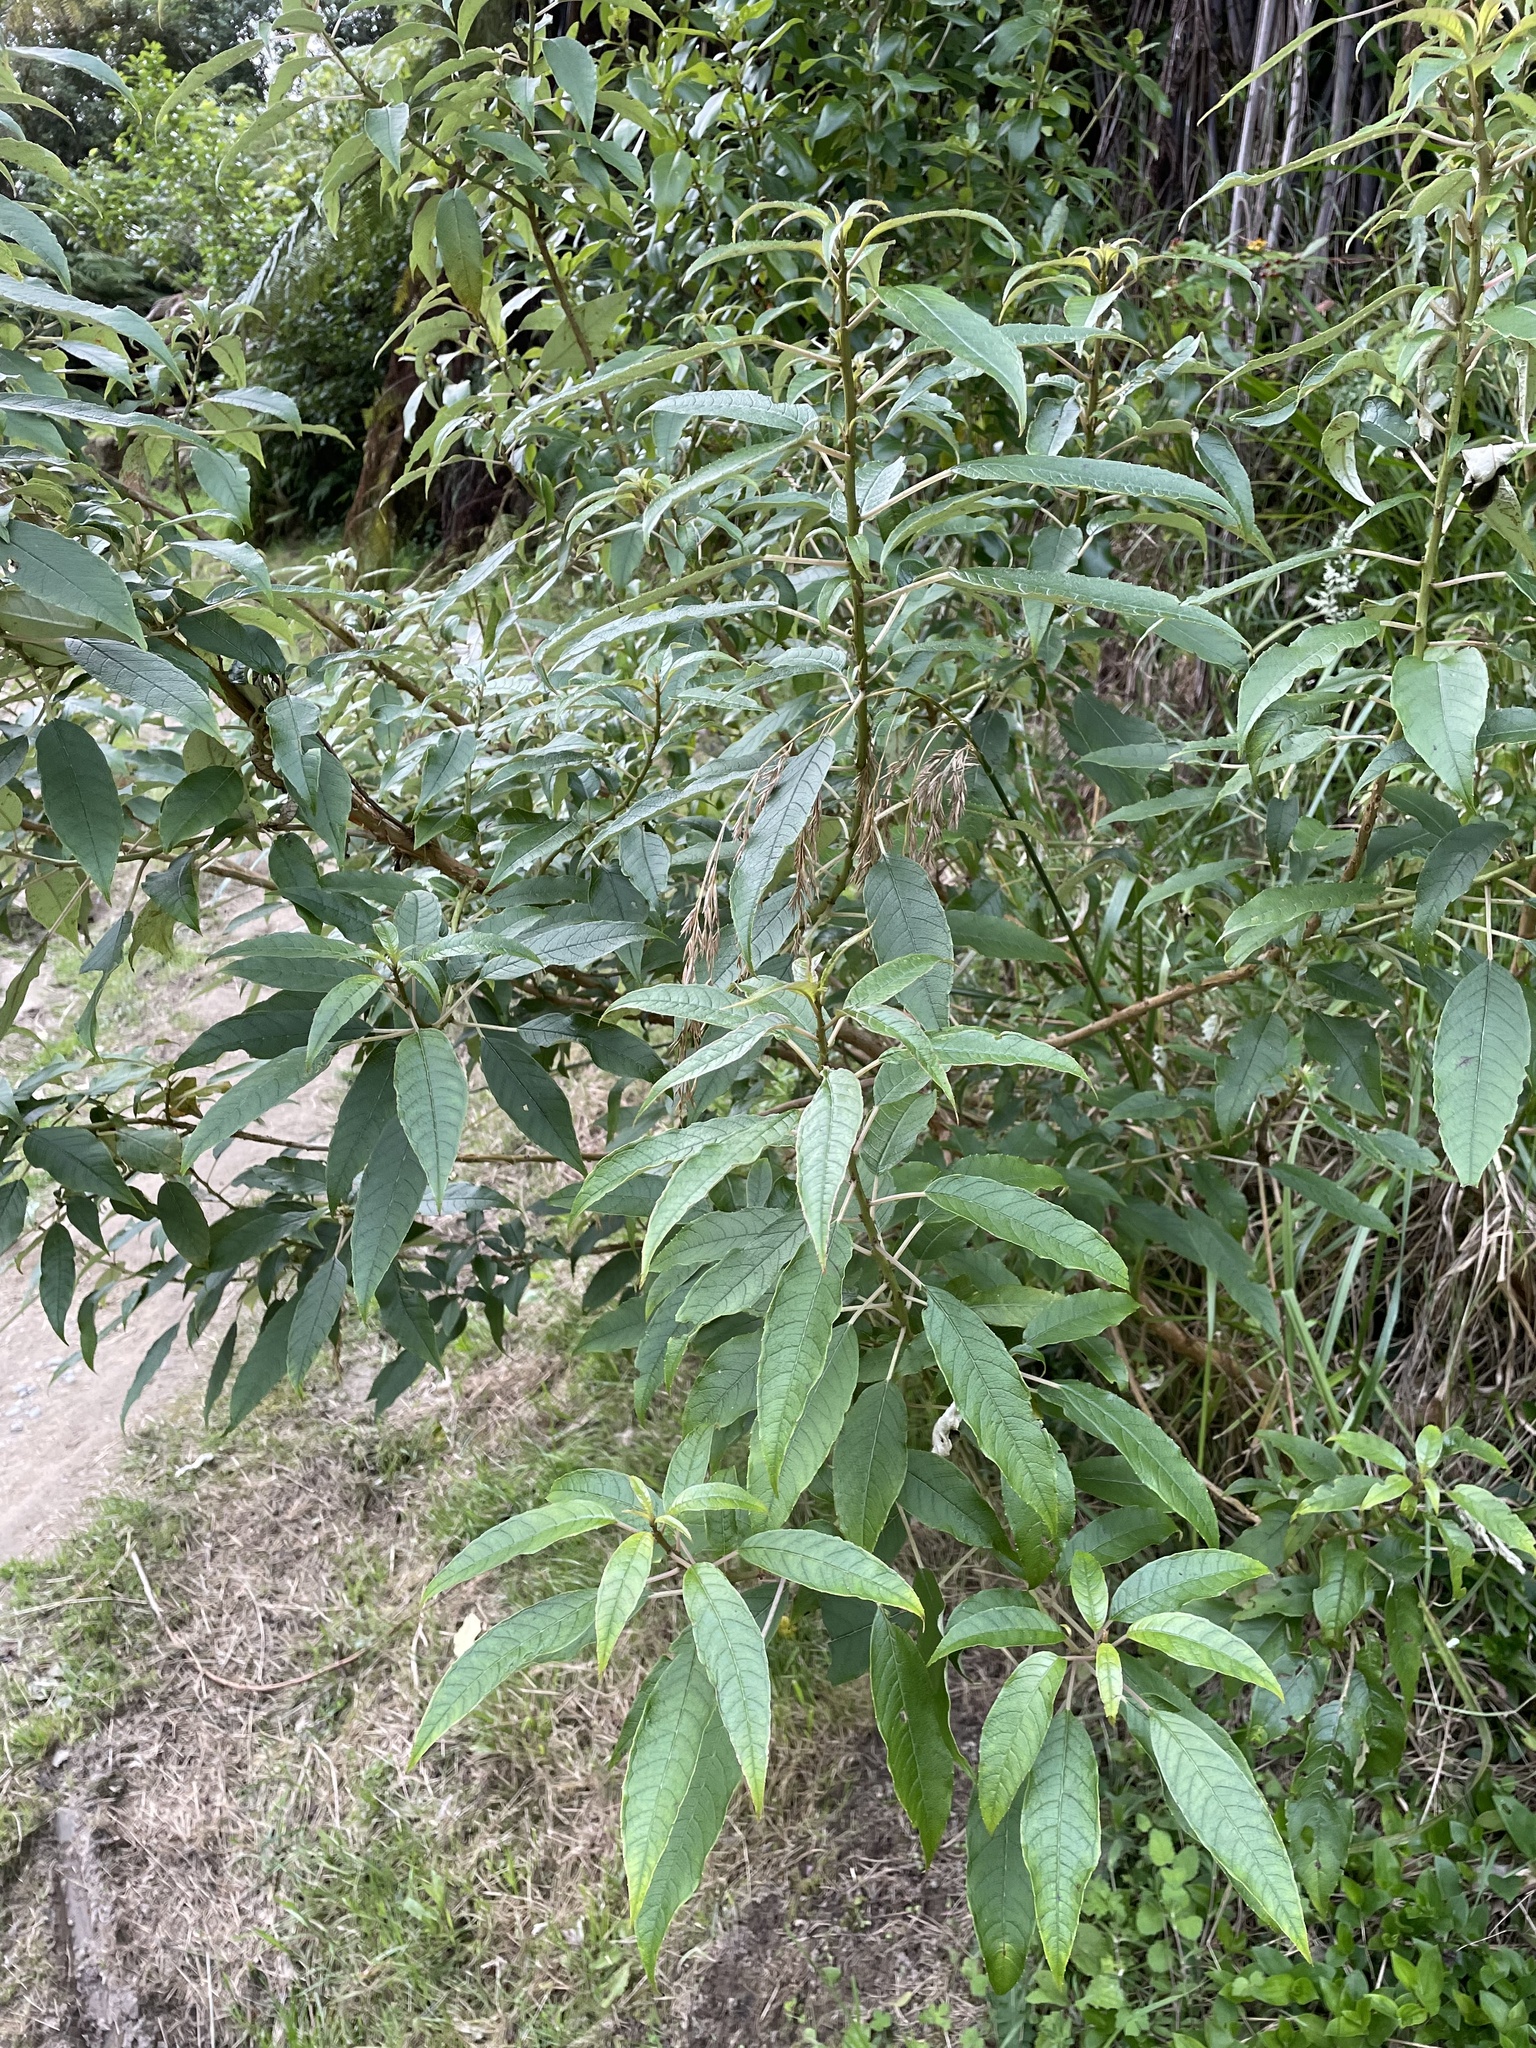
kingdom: Plantae
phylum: Tracheophyta
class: Magnoliopsida
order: Myrtales
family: Onagraceae
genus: Fuchsia
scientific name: Fuchsia excorticata
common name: Tree fuchsia
